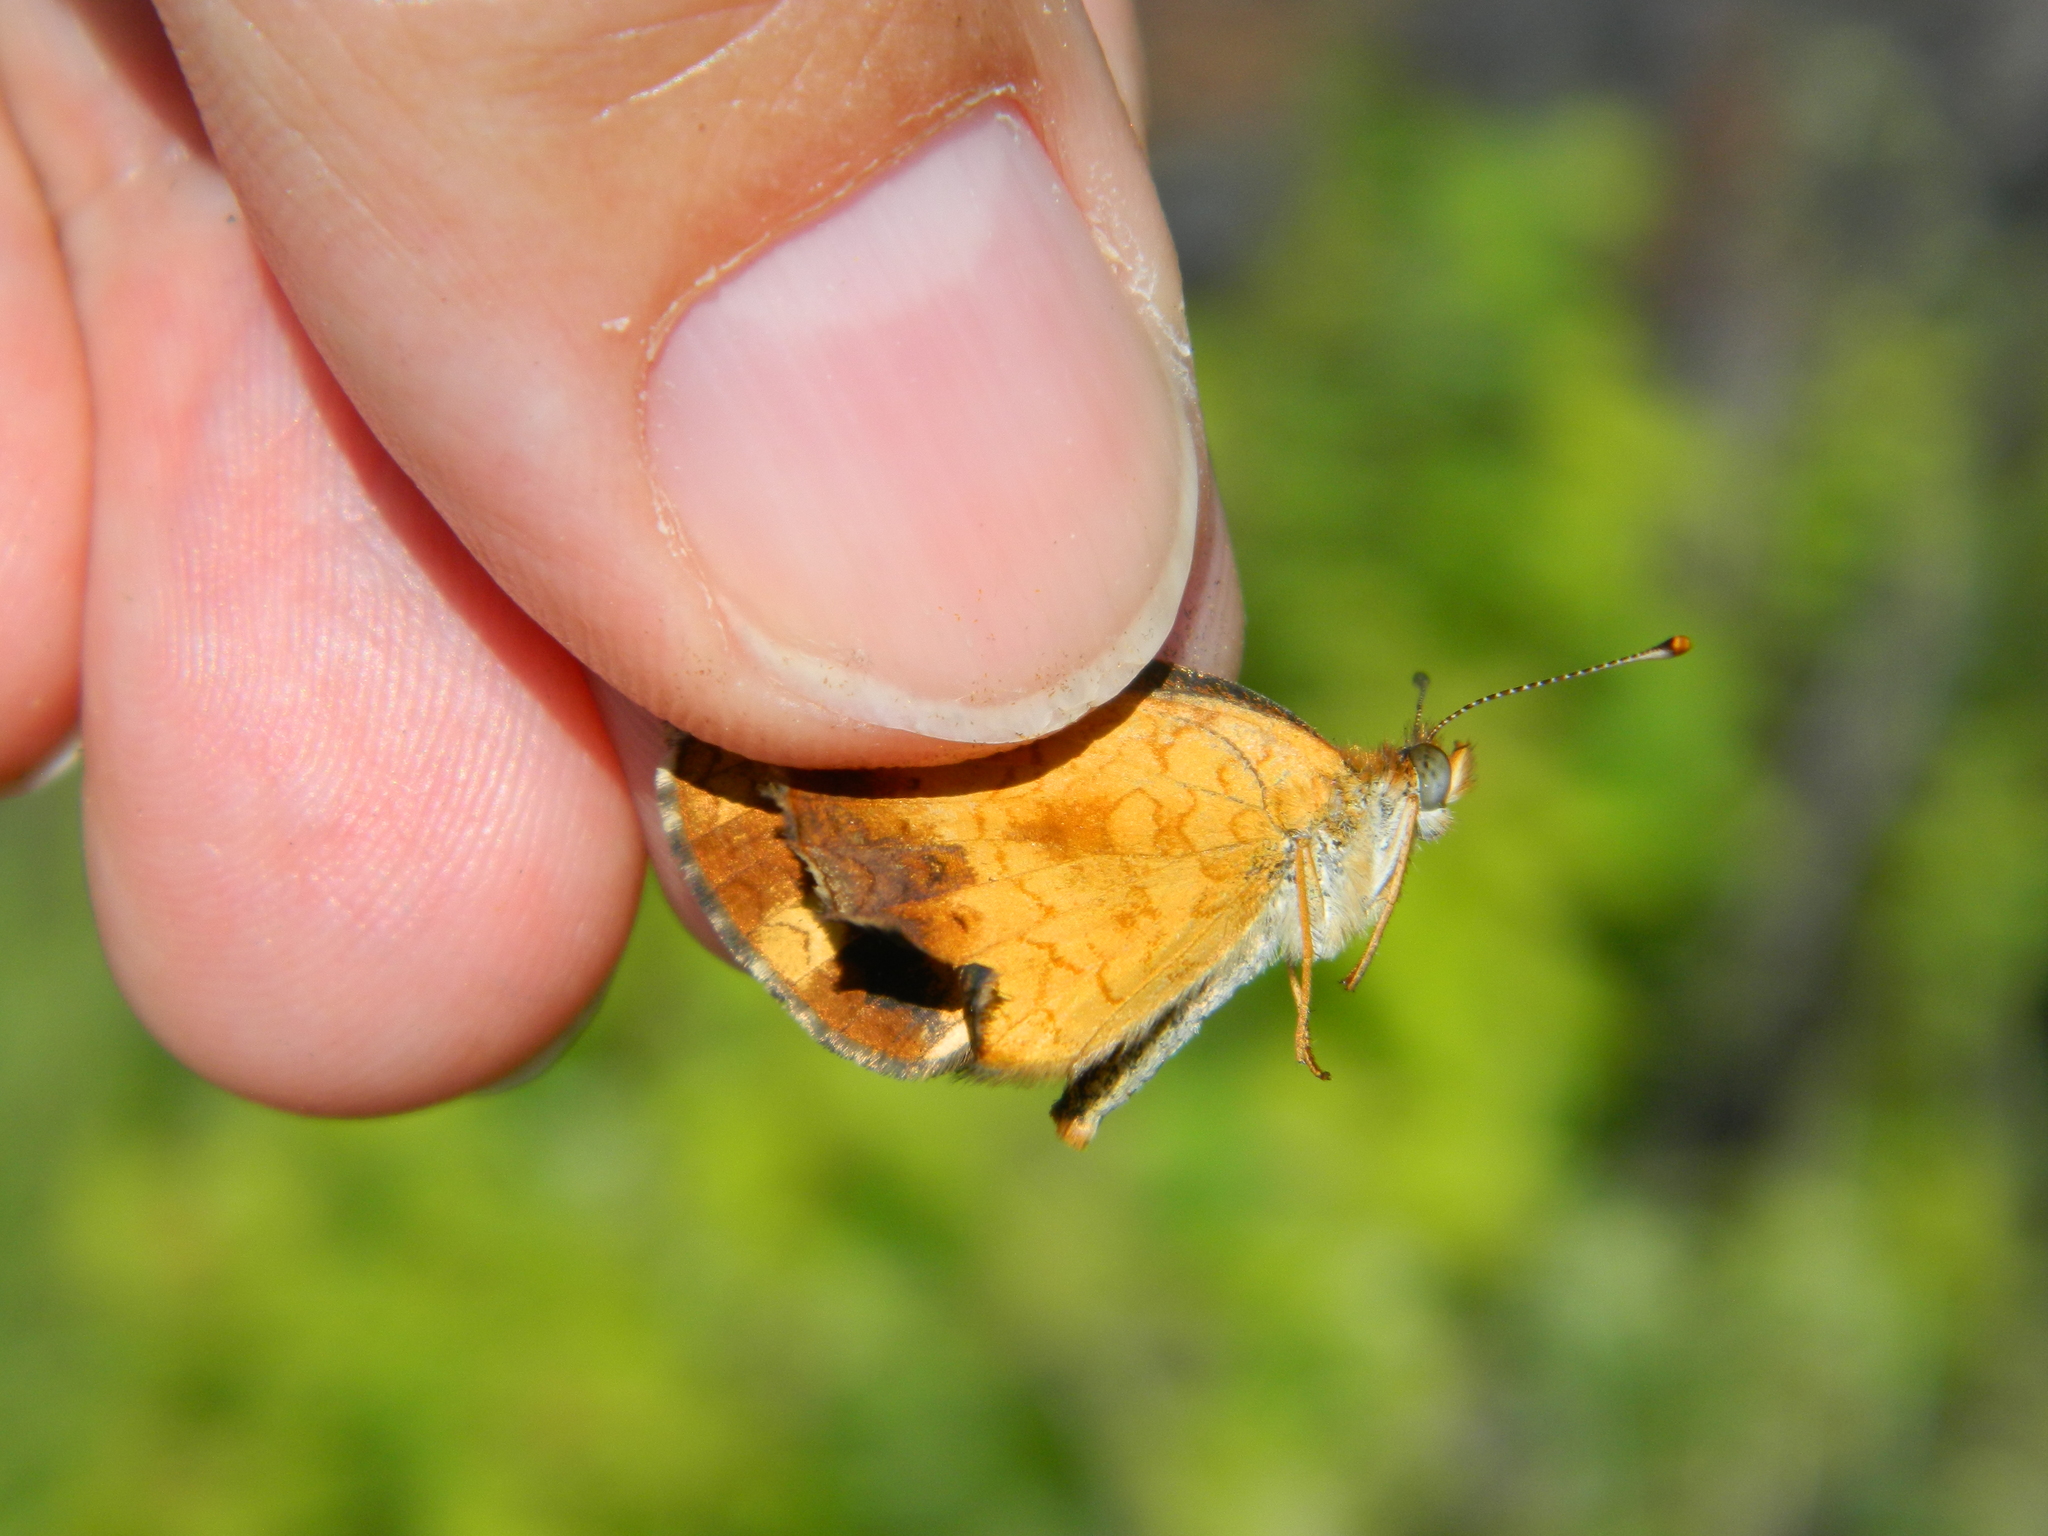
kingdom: Animalia
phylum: Arthropoda
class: Insecta
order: Lepidoptera
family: Nymphalidae
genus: Phyciodes
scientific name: Phyciodes tharos
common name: Pearl crescent
